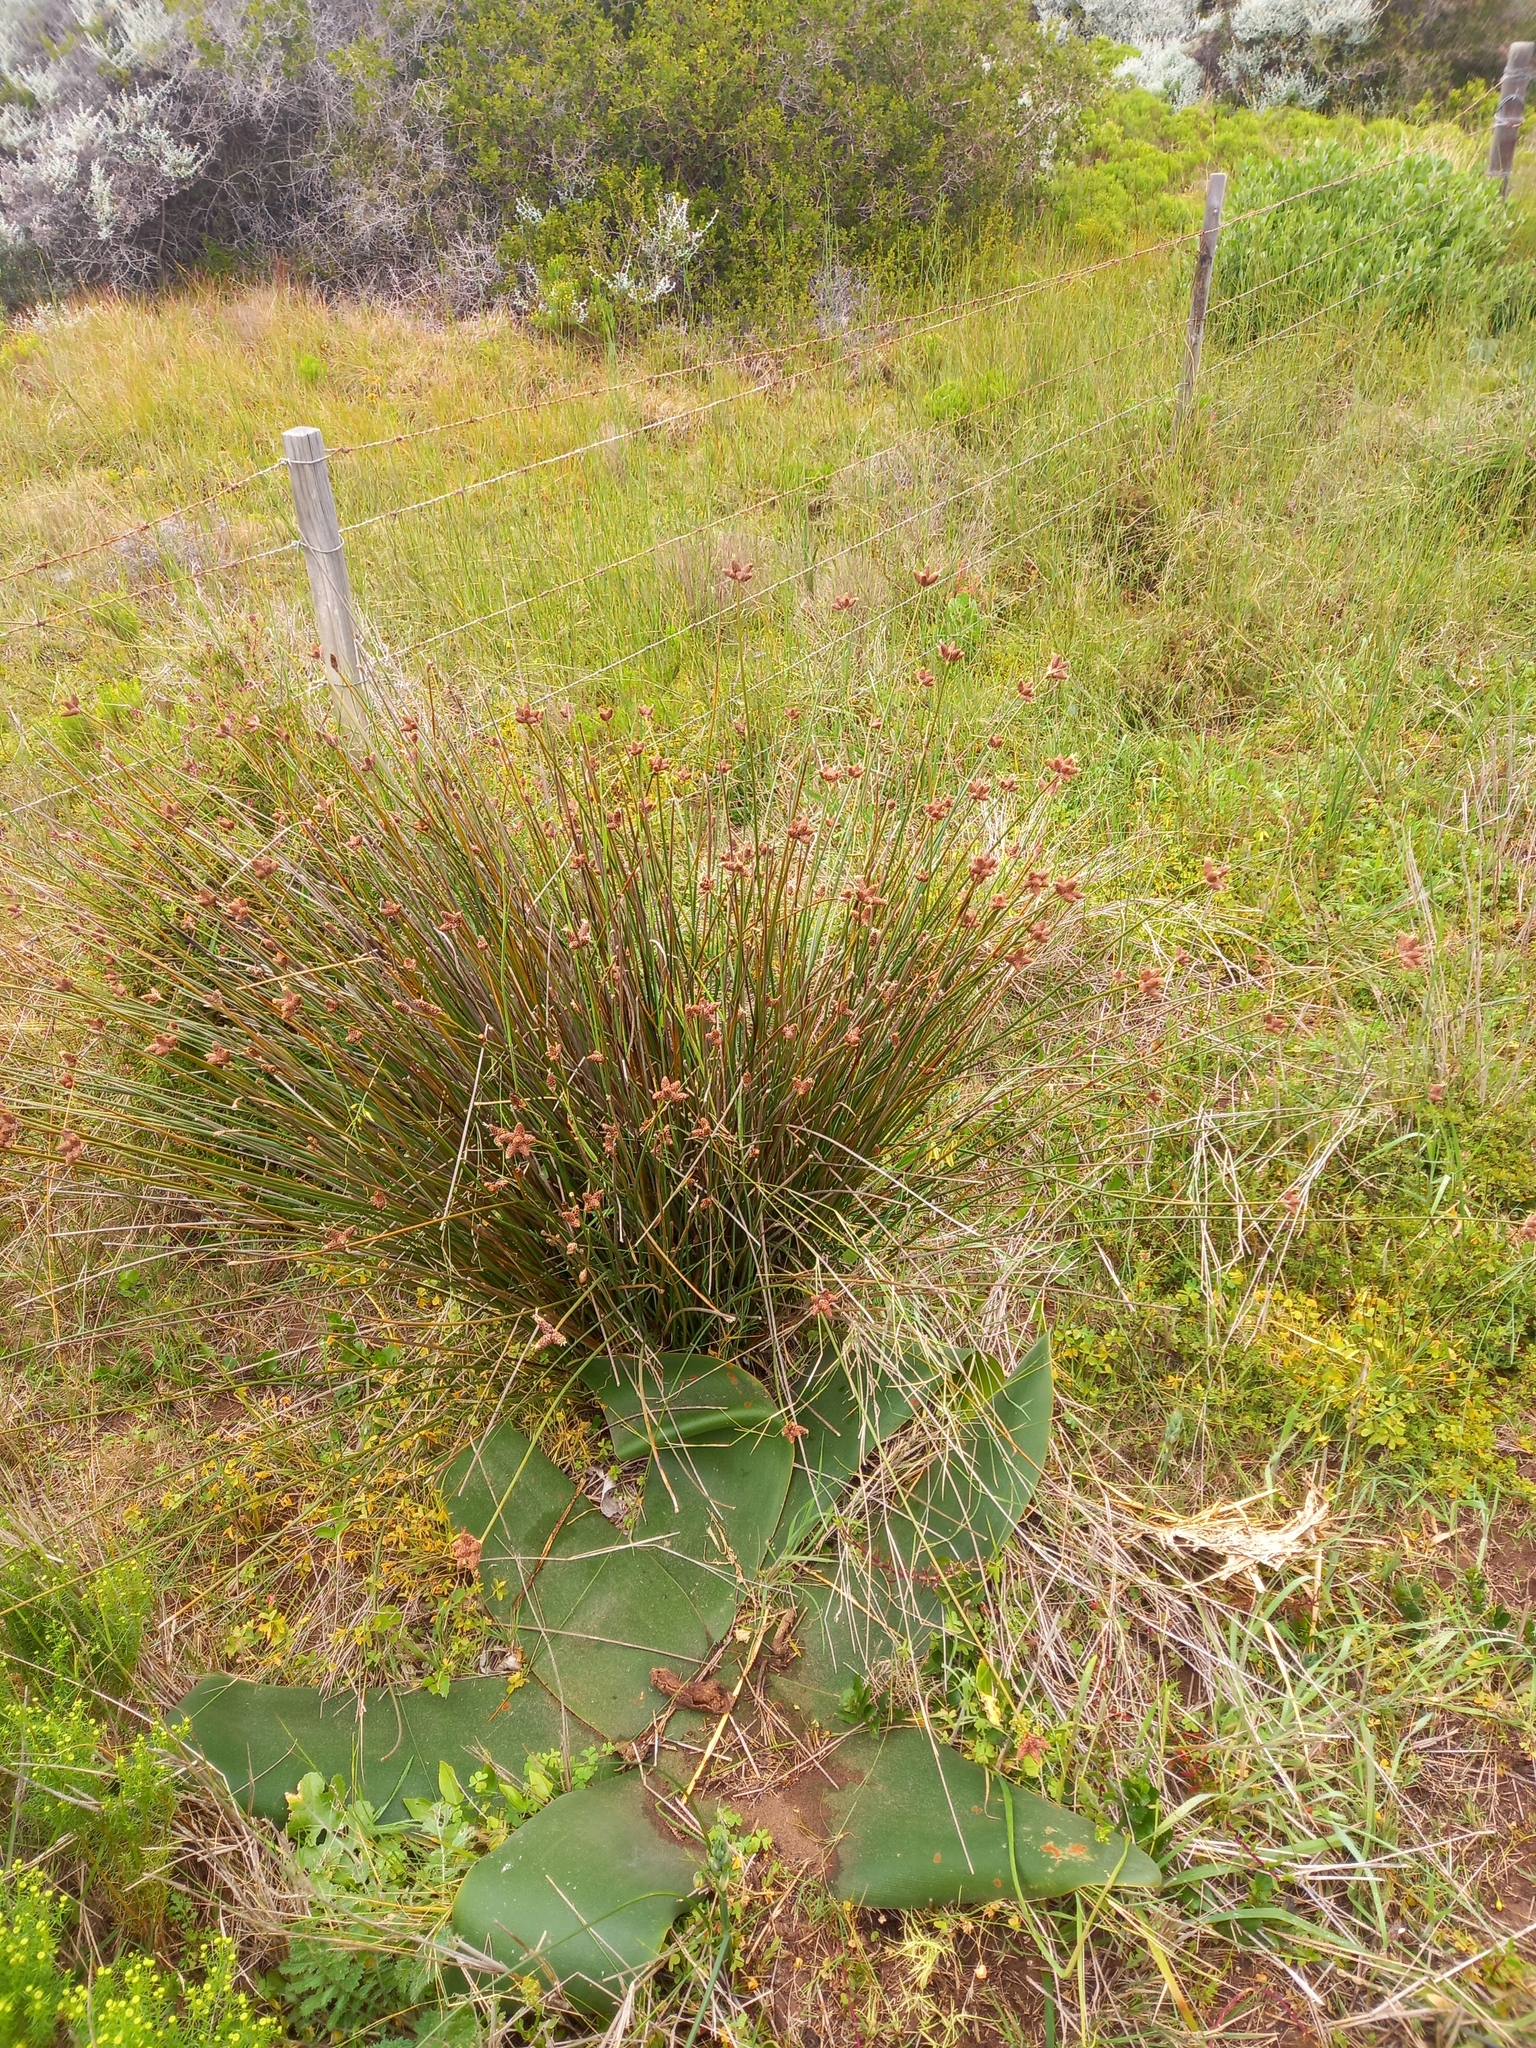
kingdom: Plantae
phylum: Tracheophyta
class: Liliopsida
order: Asparagales
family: Amaryllidaceae
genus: Brunsvigia
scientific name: Brunsvigia orientalis
